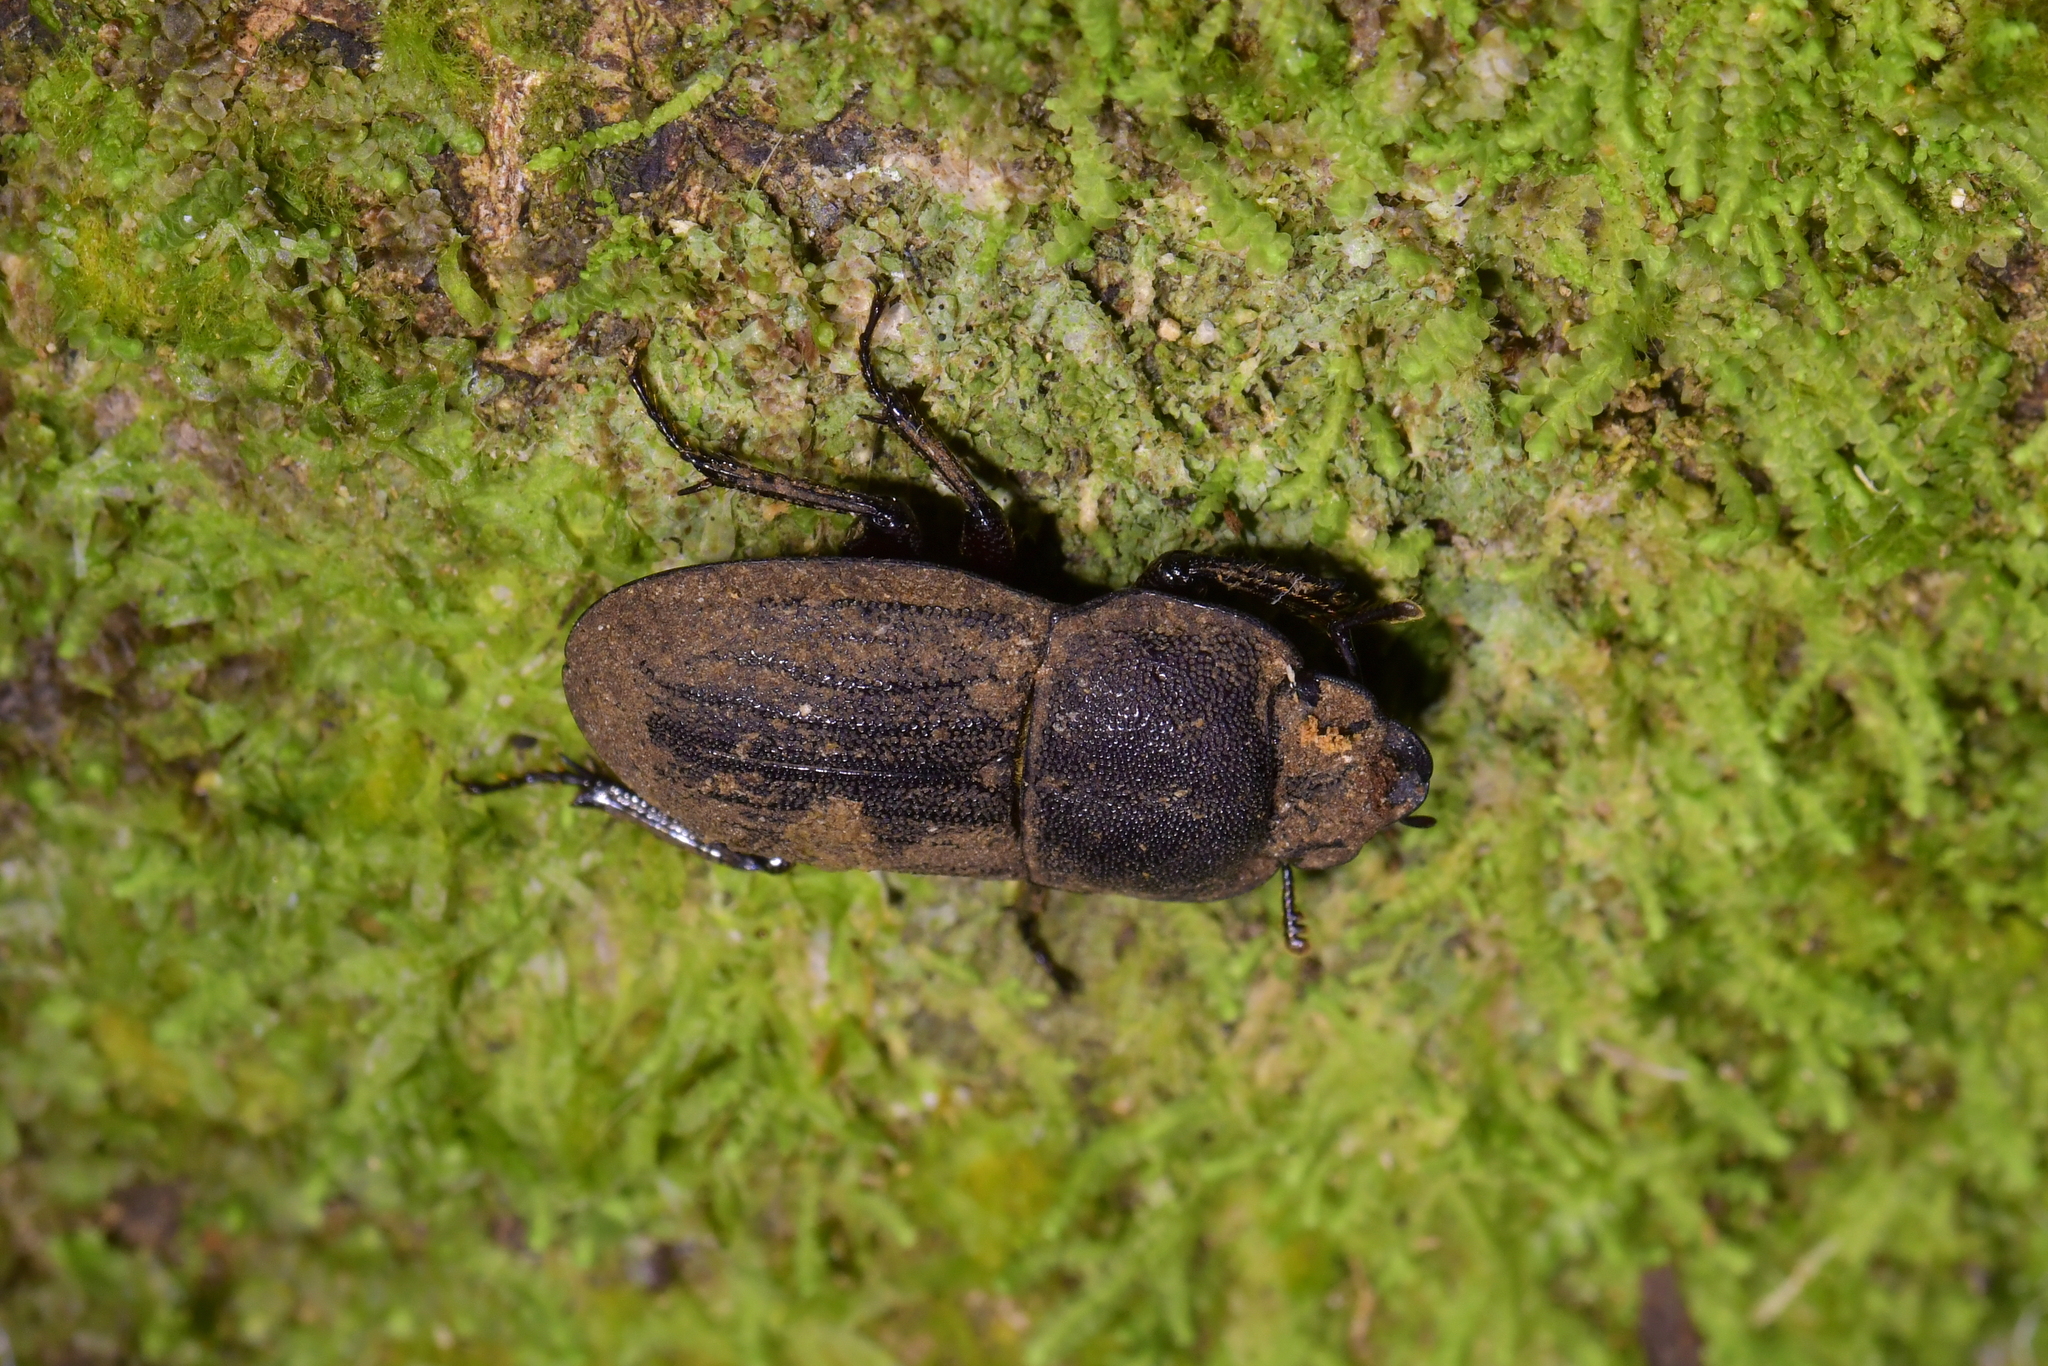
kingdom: Animalia
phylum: Arthropoda
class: Insecta
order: Coleoptera
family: Lucanidae
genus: Geodorcus
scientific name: Geodorcus novaezealandiae
